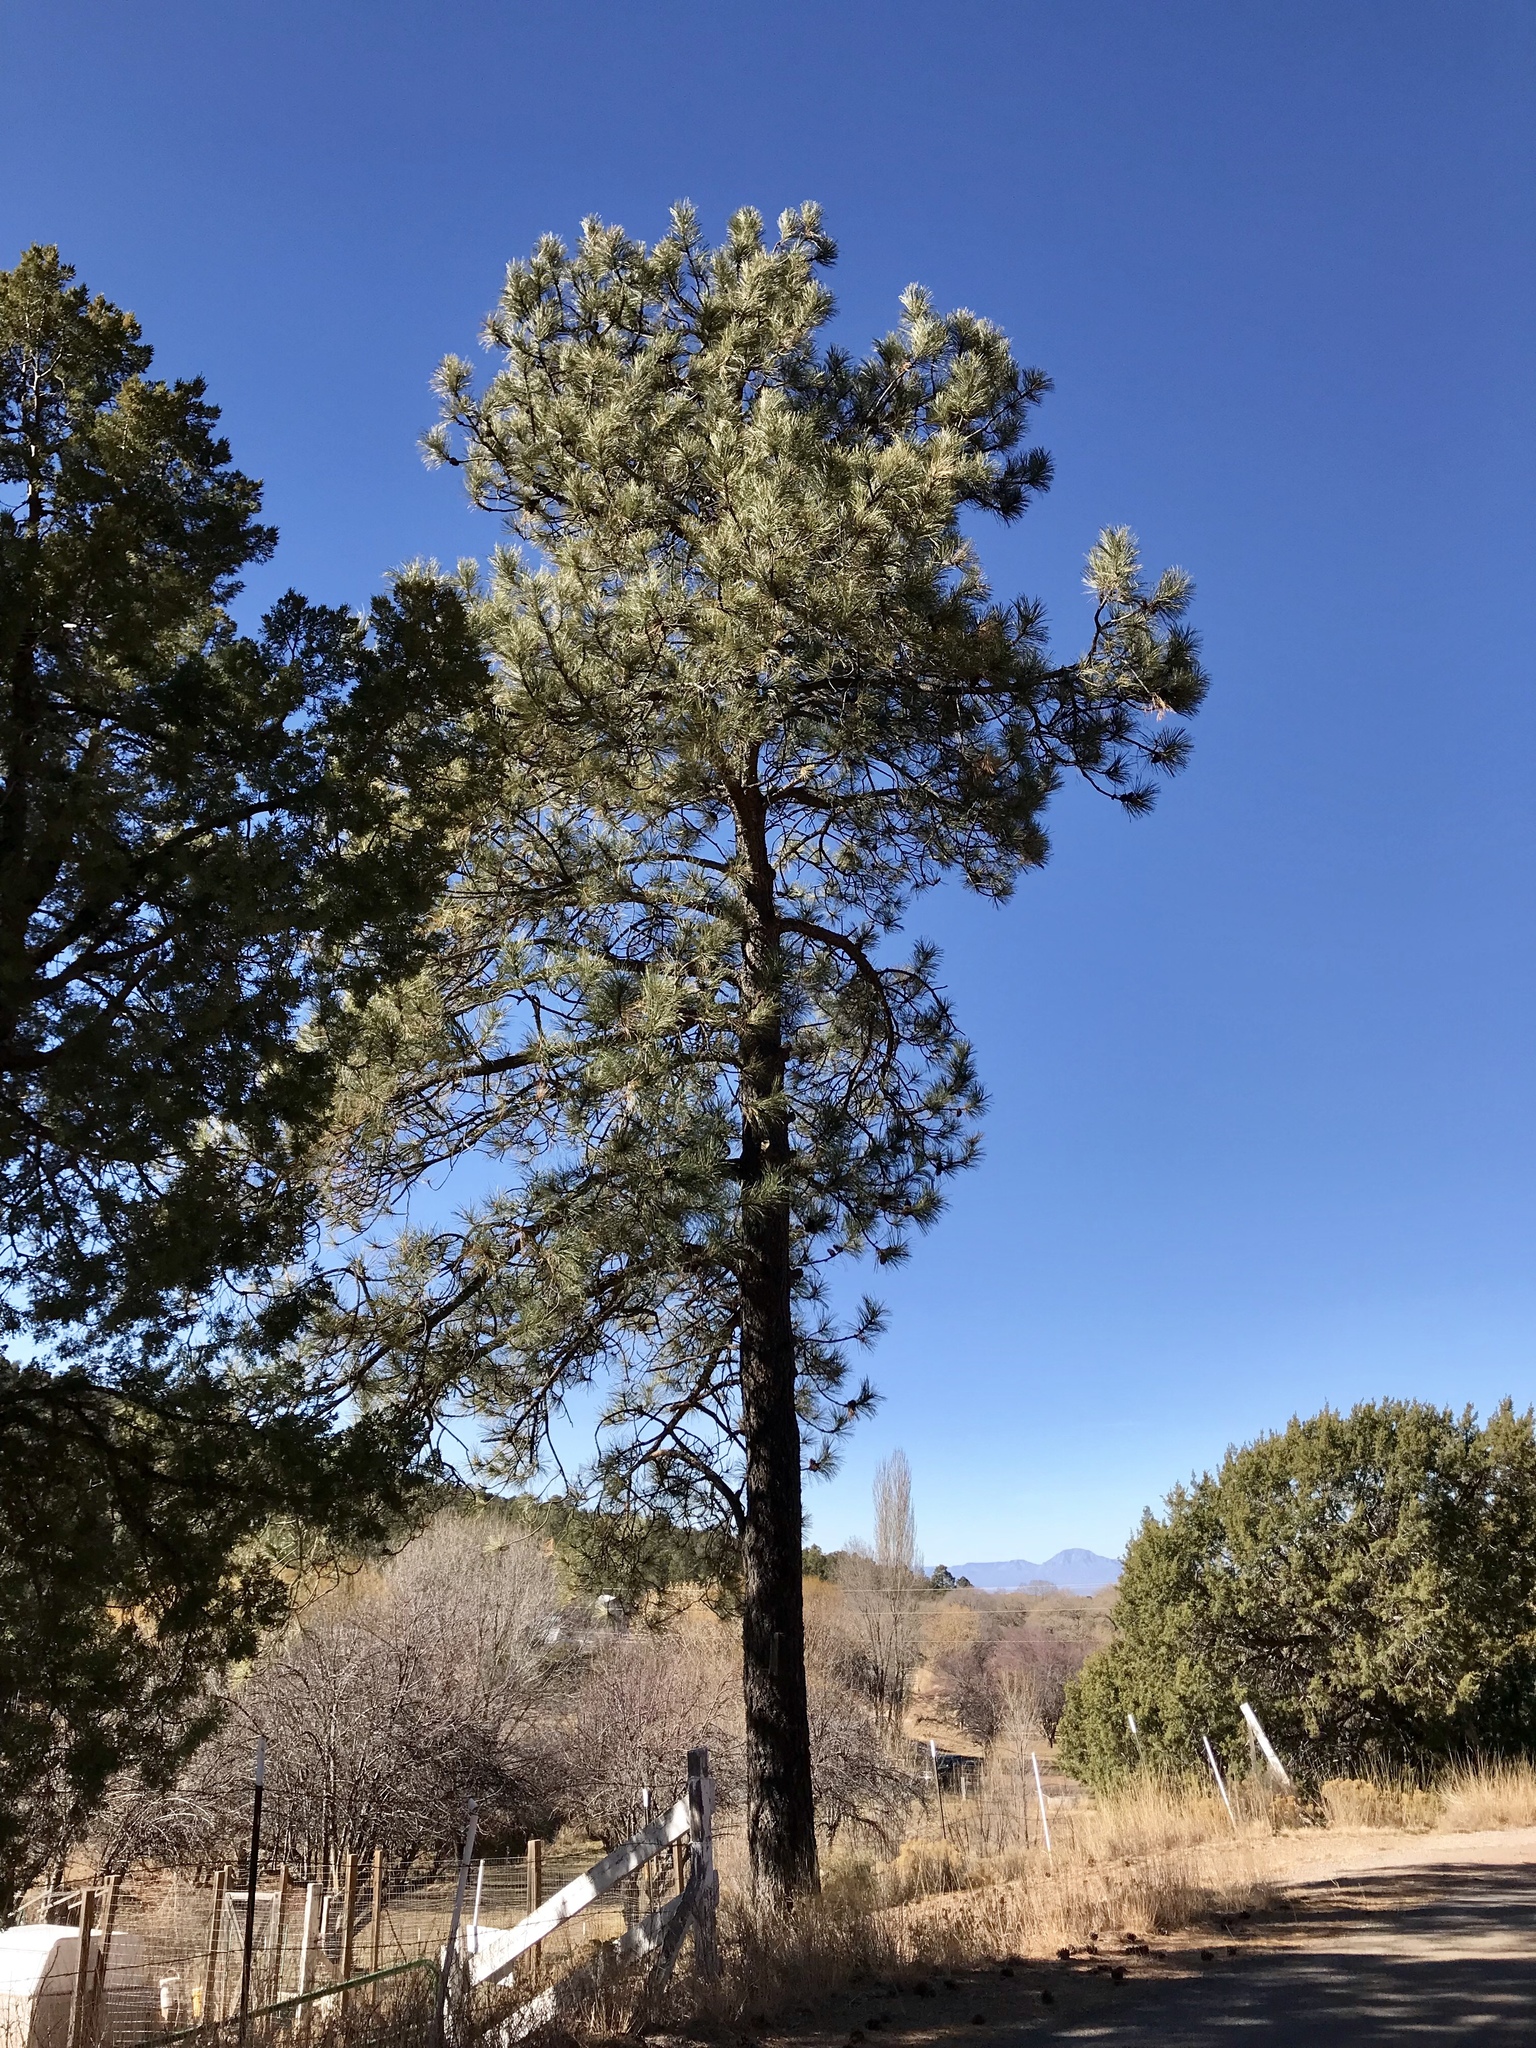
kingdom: Plantae
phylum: Tracheophyta
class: Pinopsida
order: Pinales
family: Pinaceae
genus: Pinus
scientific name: Pinus ponderosa
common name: Western yellow-pine
